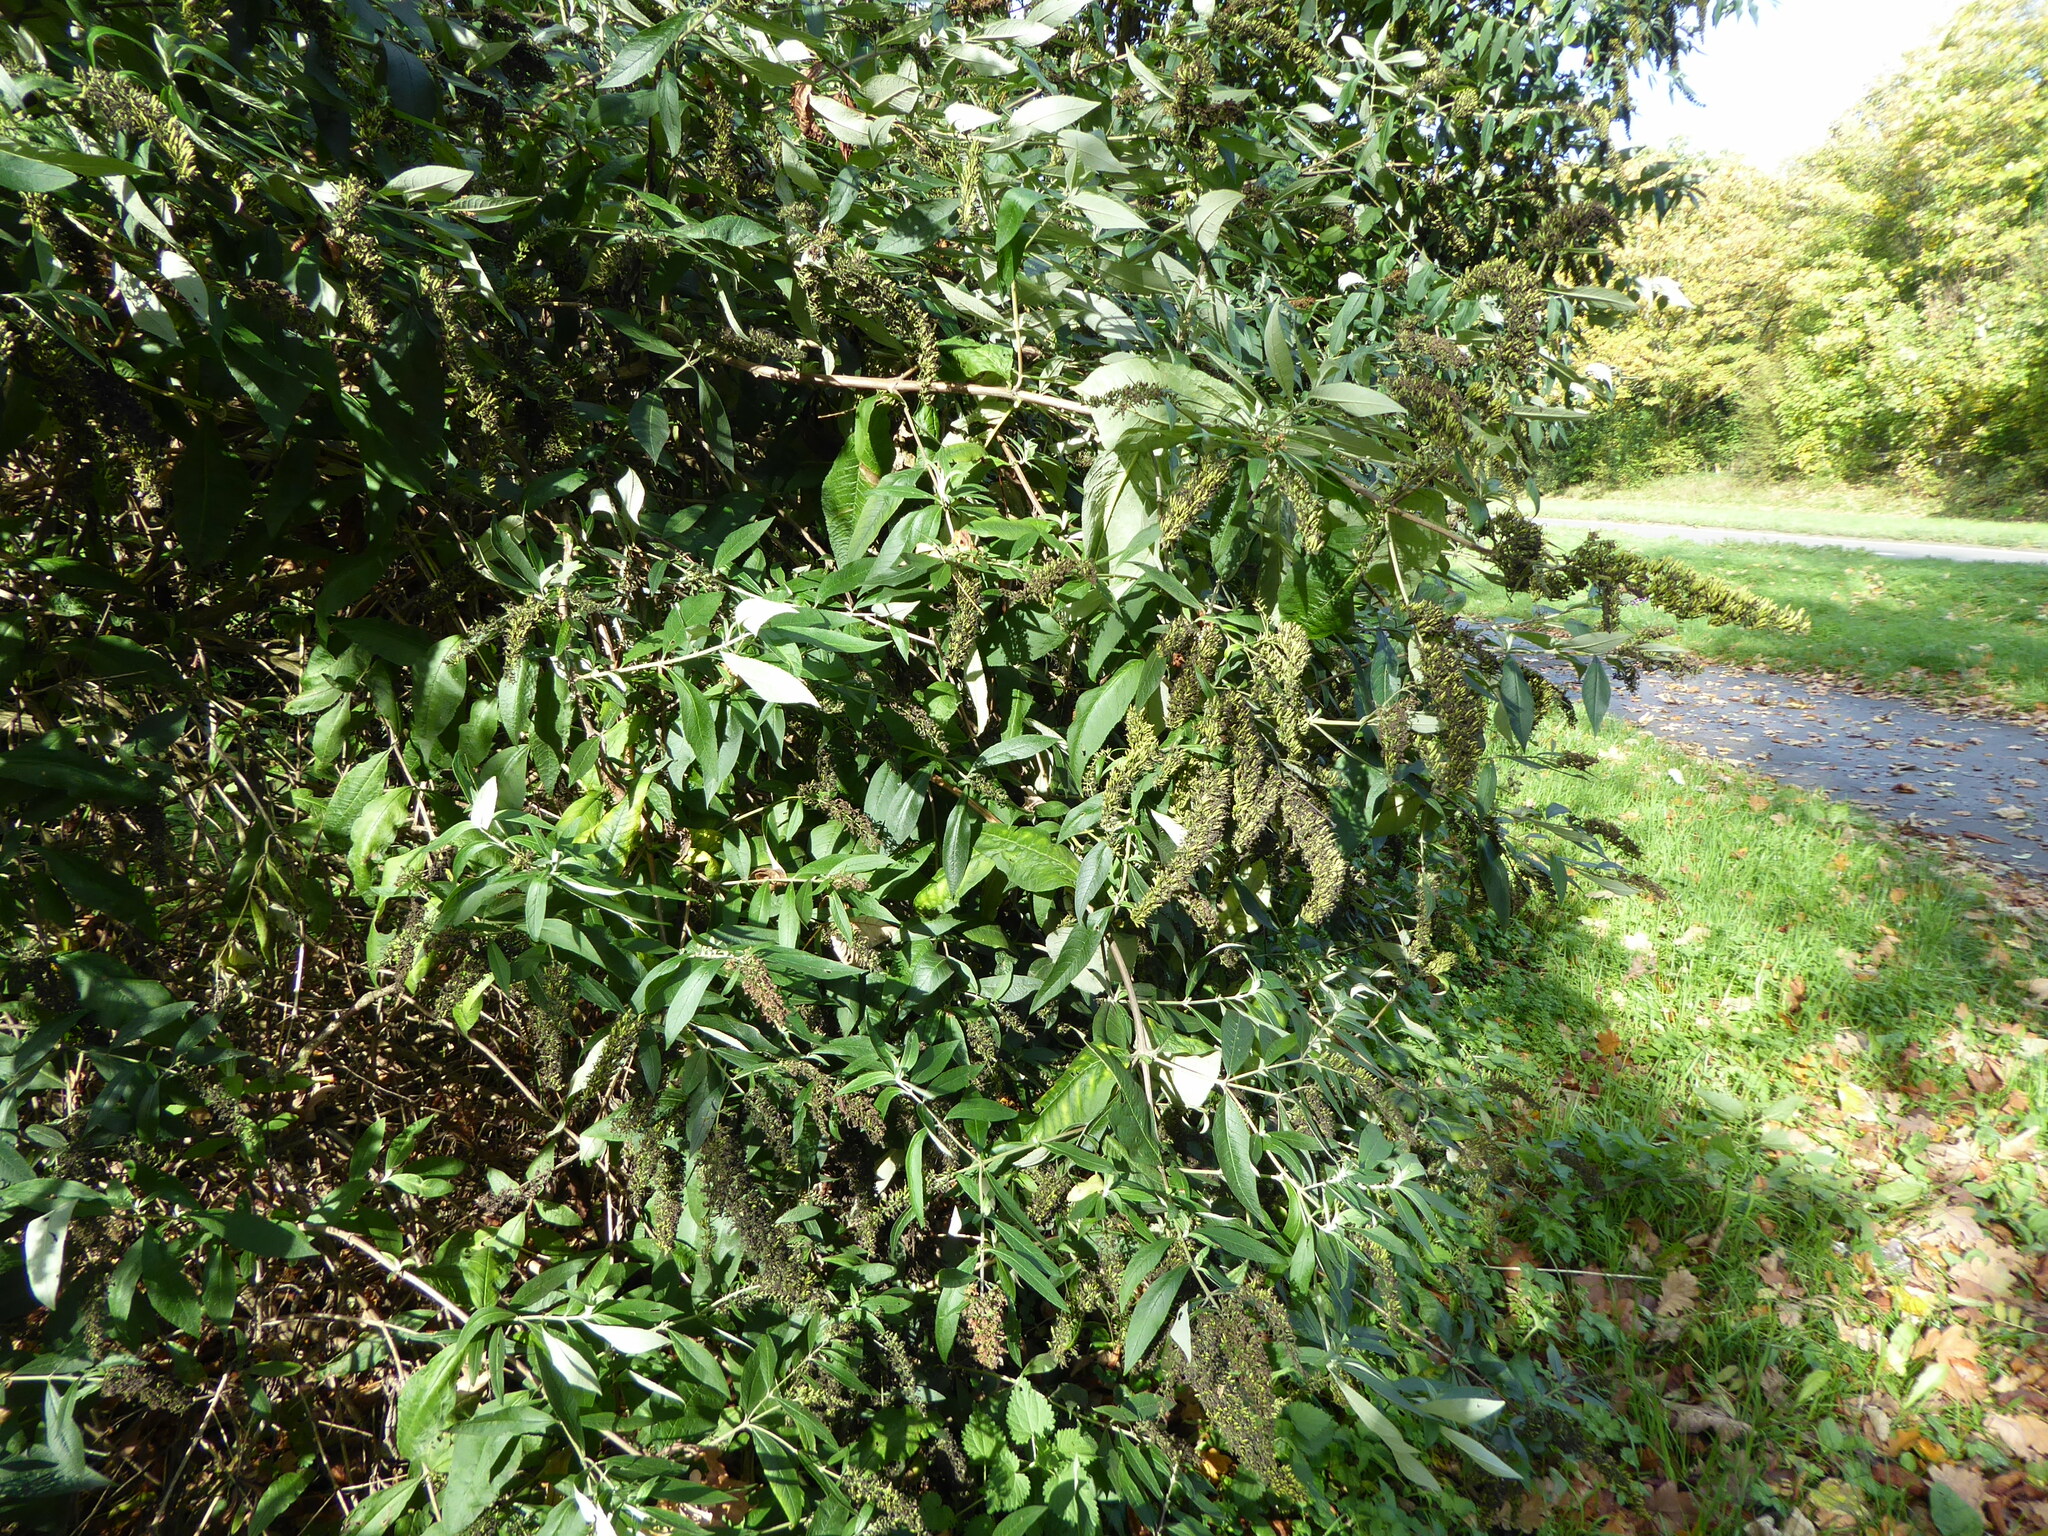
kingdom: Plantae
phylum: Tracheophyta
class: Magnoliopsida
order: Lamiales
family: Scrophulariaceae
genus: Buddleja
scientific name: Buddleja davidii
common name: Butterfly-bush
